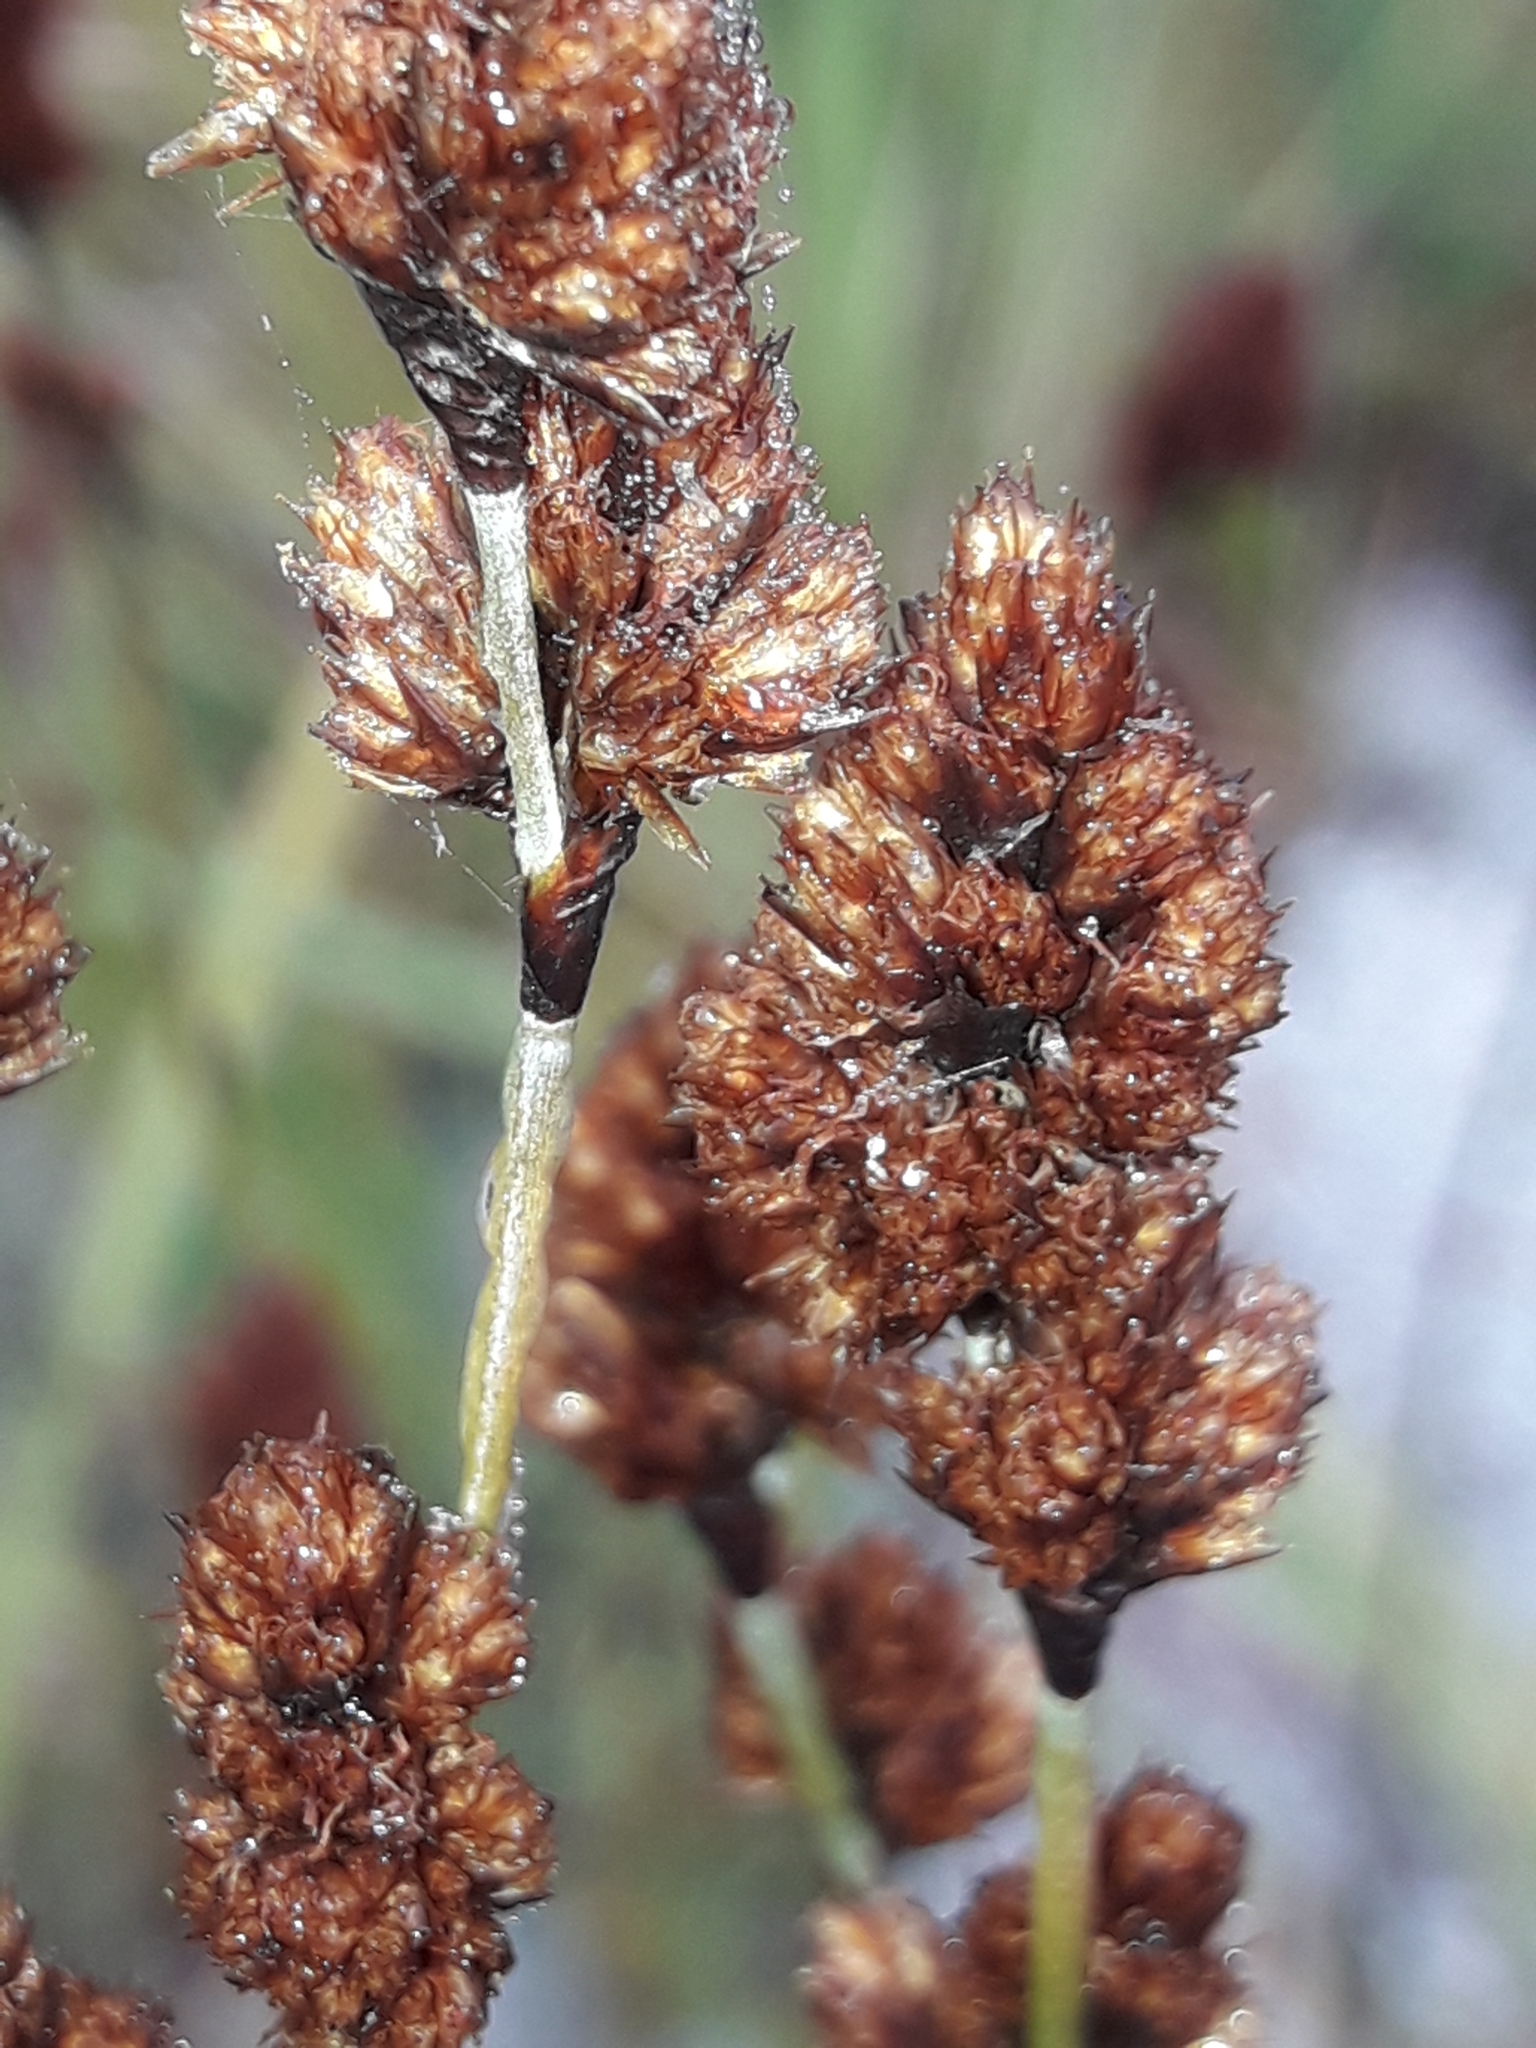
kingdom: Plantae
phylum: Tracheophyta
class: Liliopsida
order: Poales
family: Restionaceae
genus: Apodasmia
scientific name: Apodasmia similis
